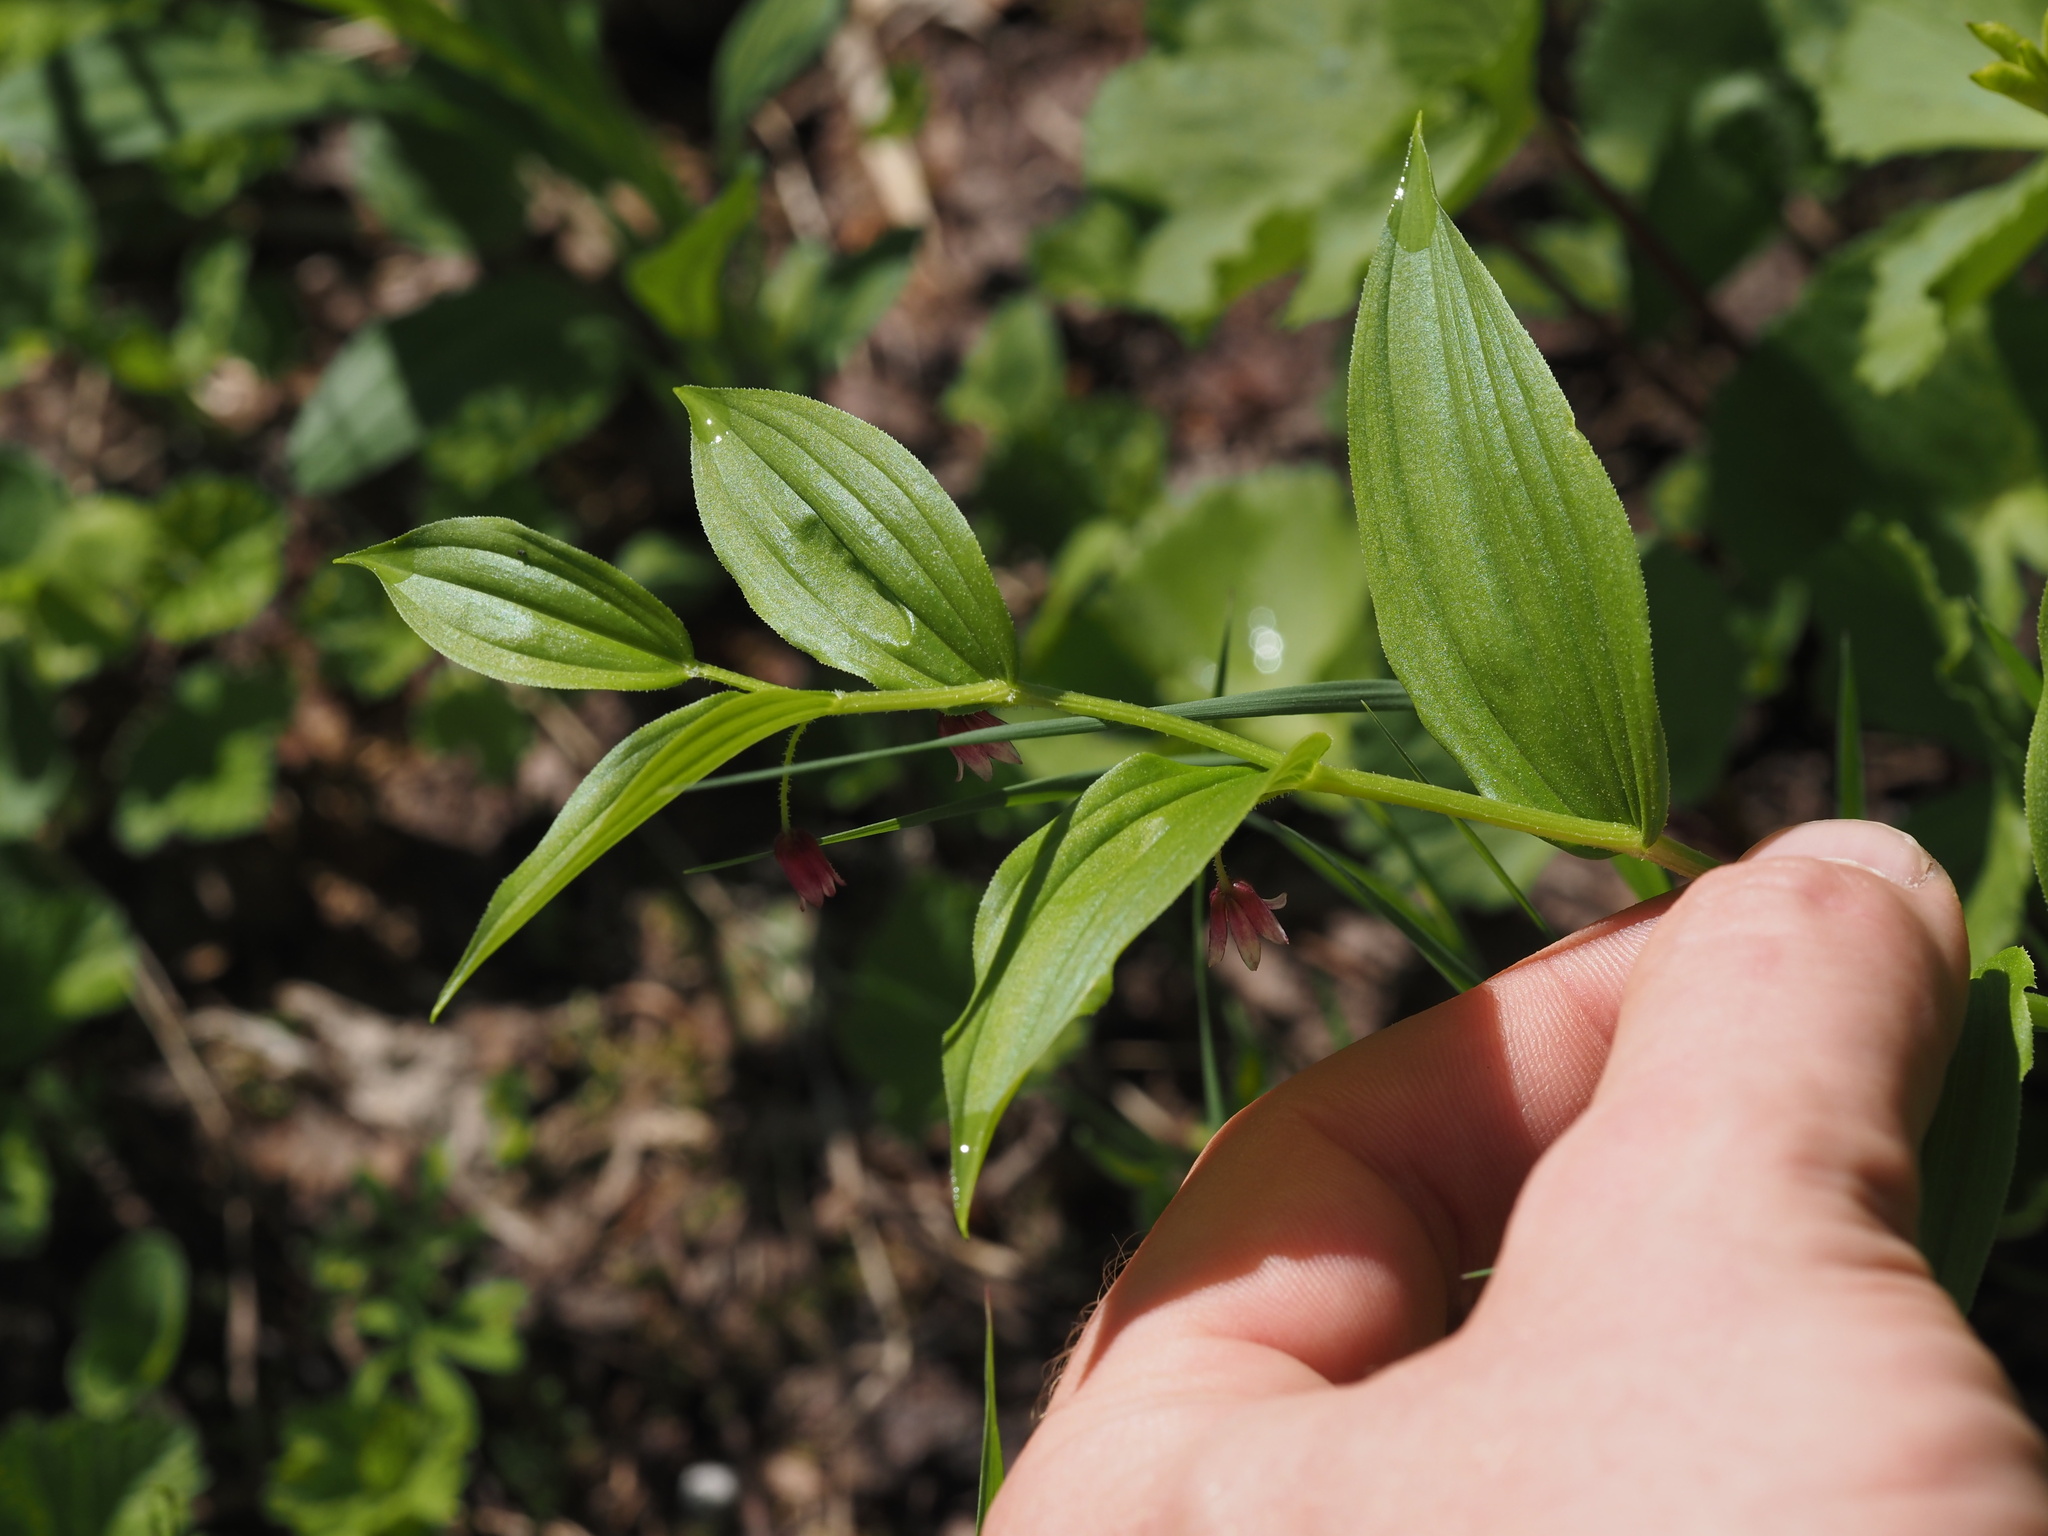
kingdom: Plantae
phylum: Tracheophyta
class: Liliopsida
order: Liliales
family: Liliaceae
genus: Streptopus
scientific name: Streptopus lanceolatus
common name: Rose mandarin
